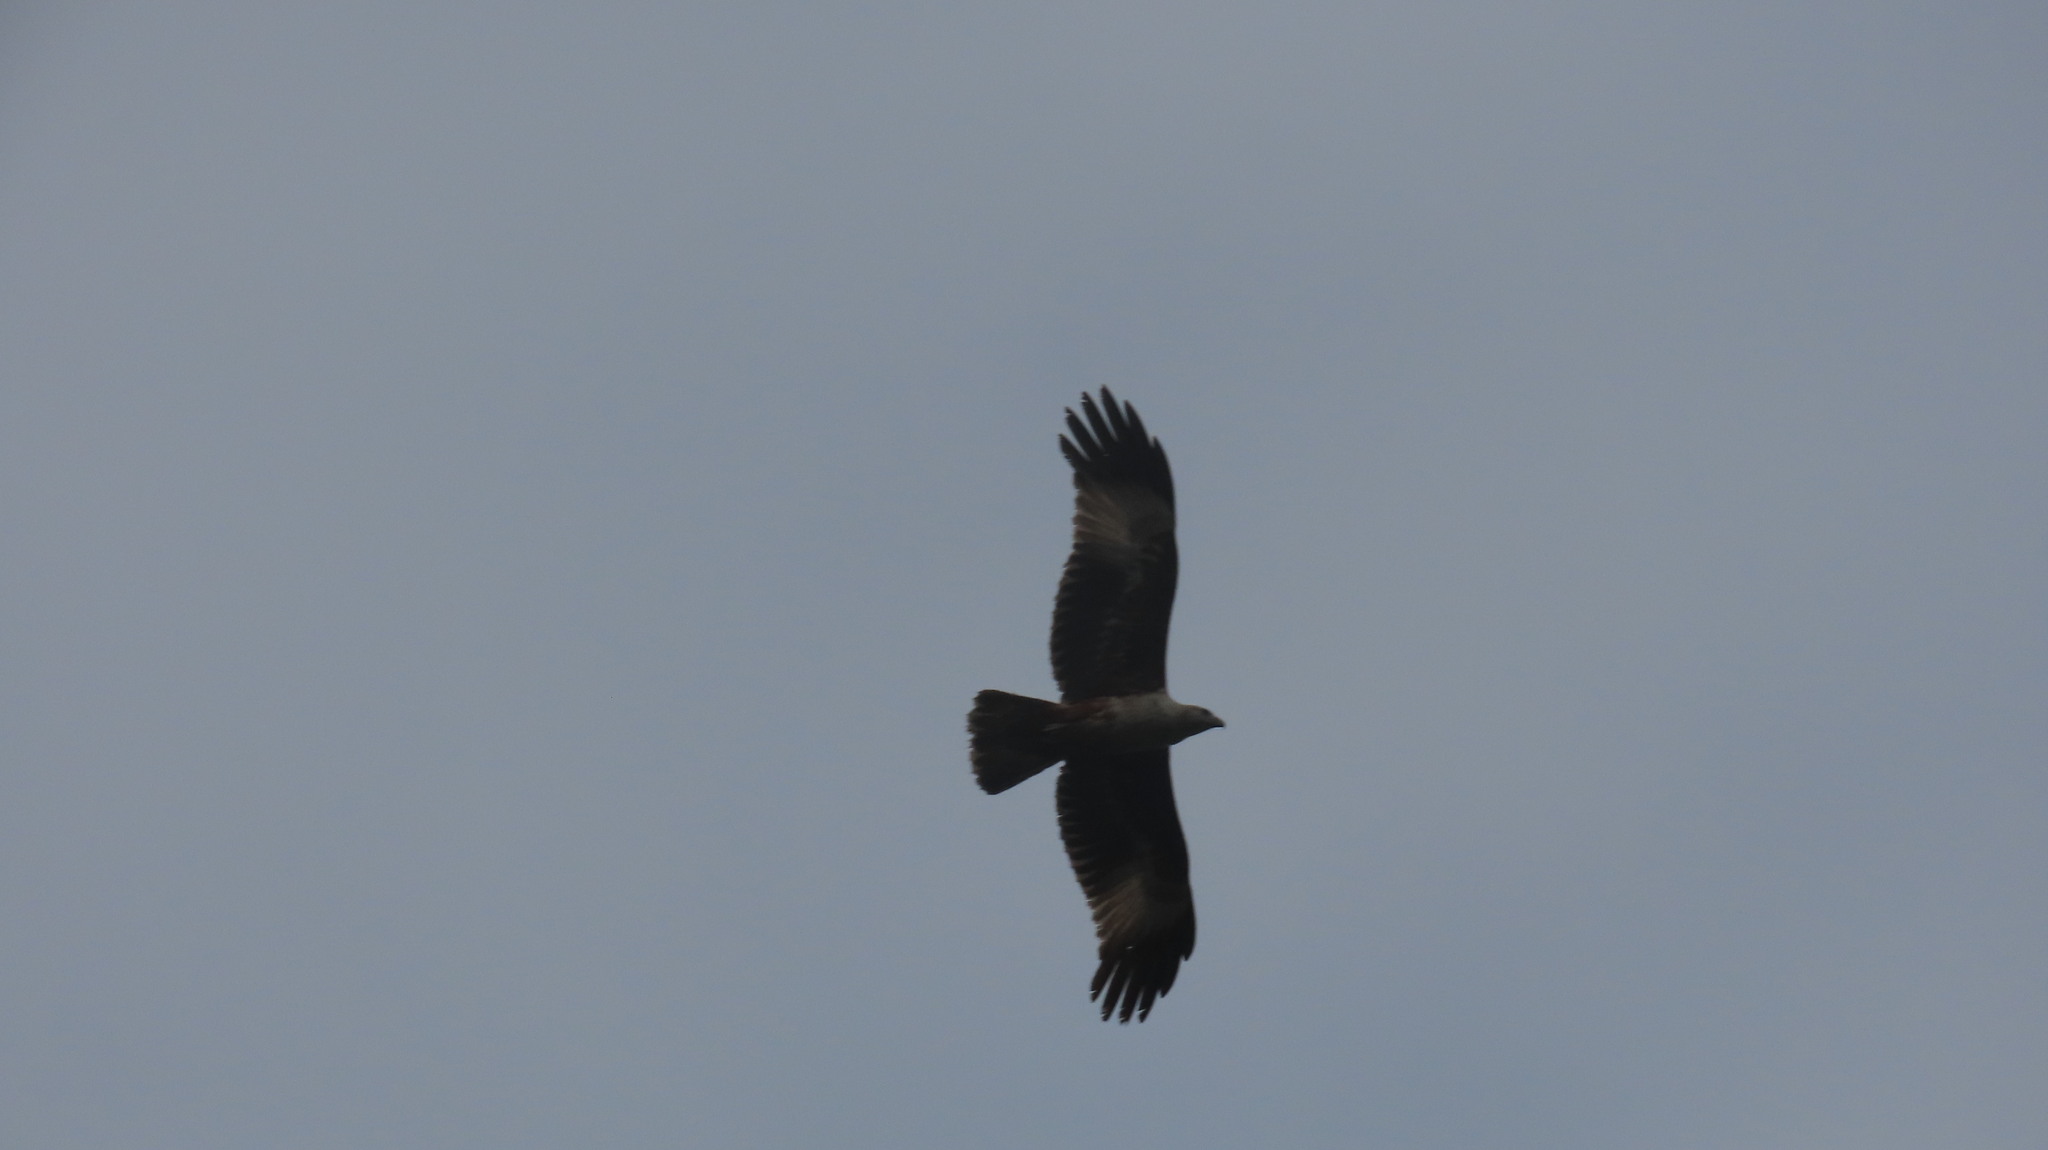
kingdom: Animalia
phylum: Chordata
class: Aves
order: Accipitriformes
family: Accipitridae
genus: Haliastur
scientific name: Haliastur indus
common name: Brahminy kite
